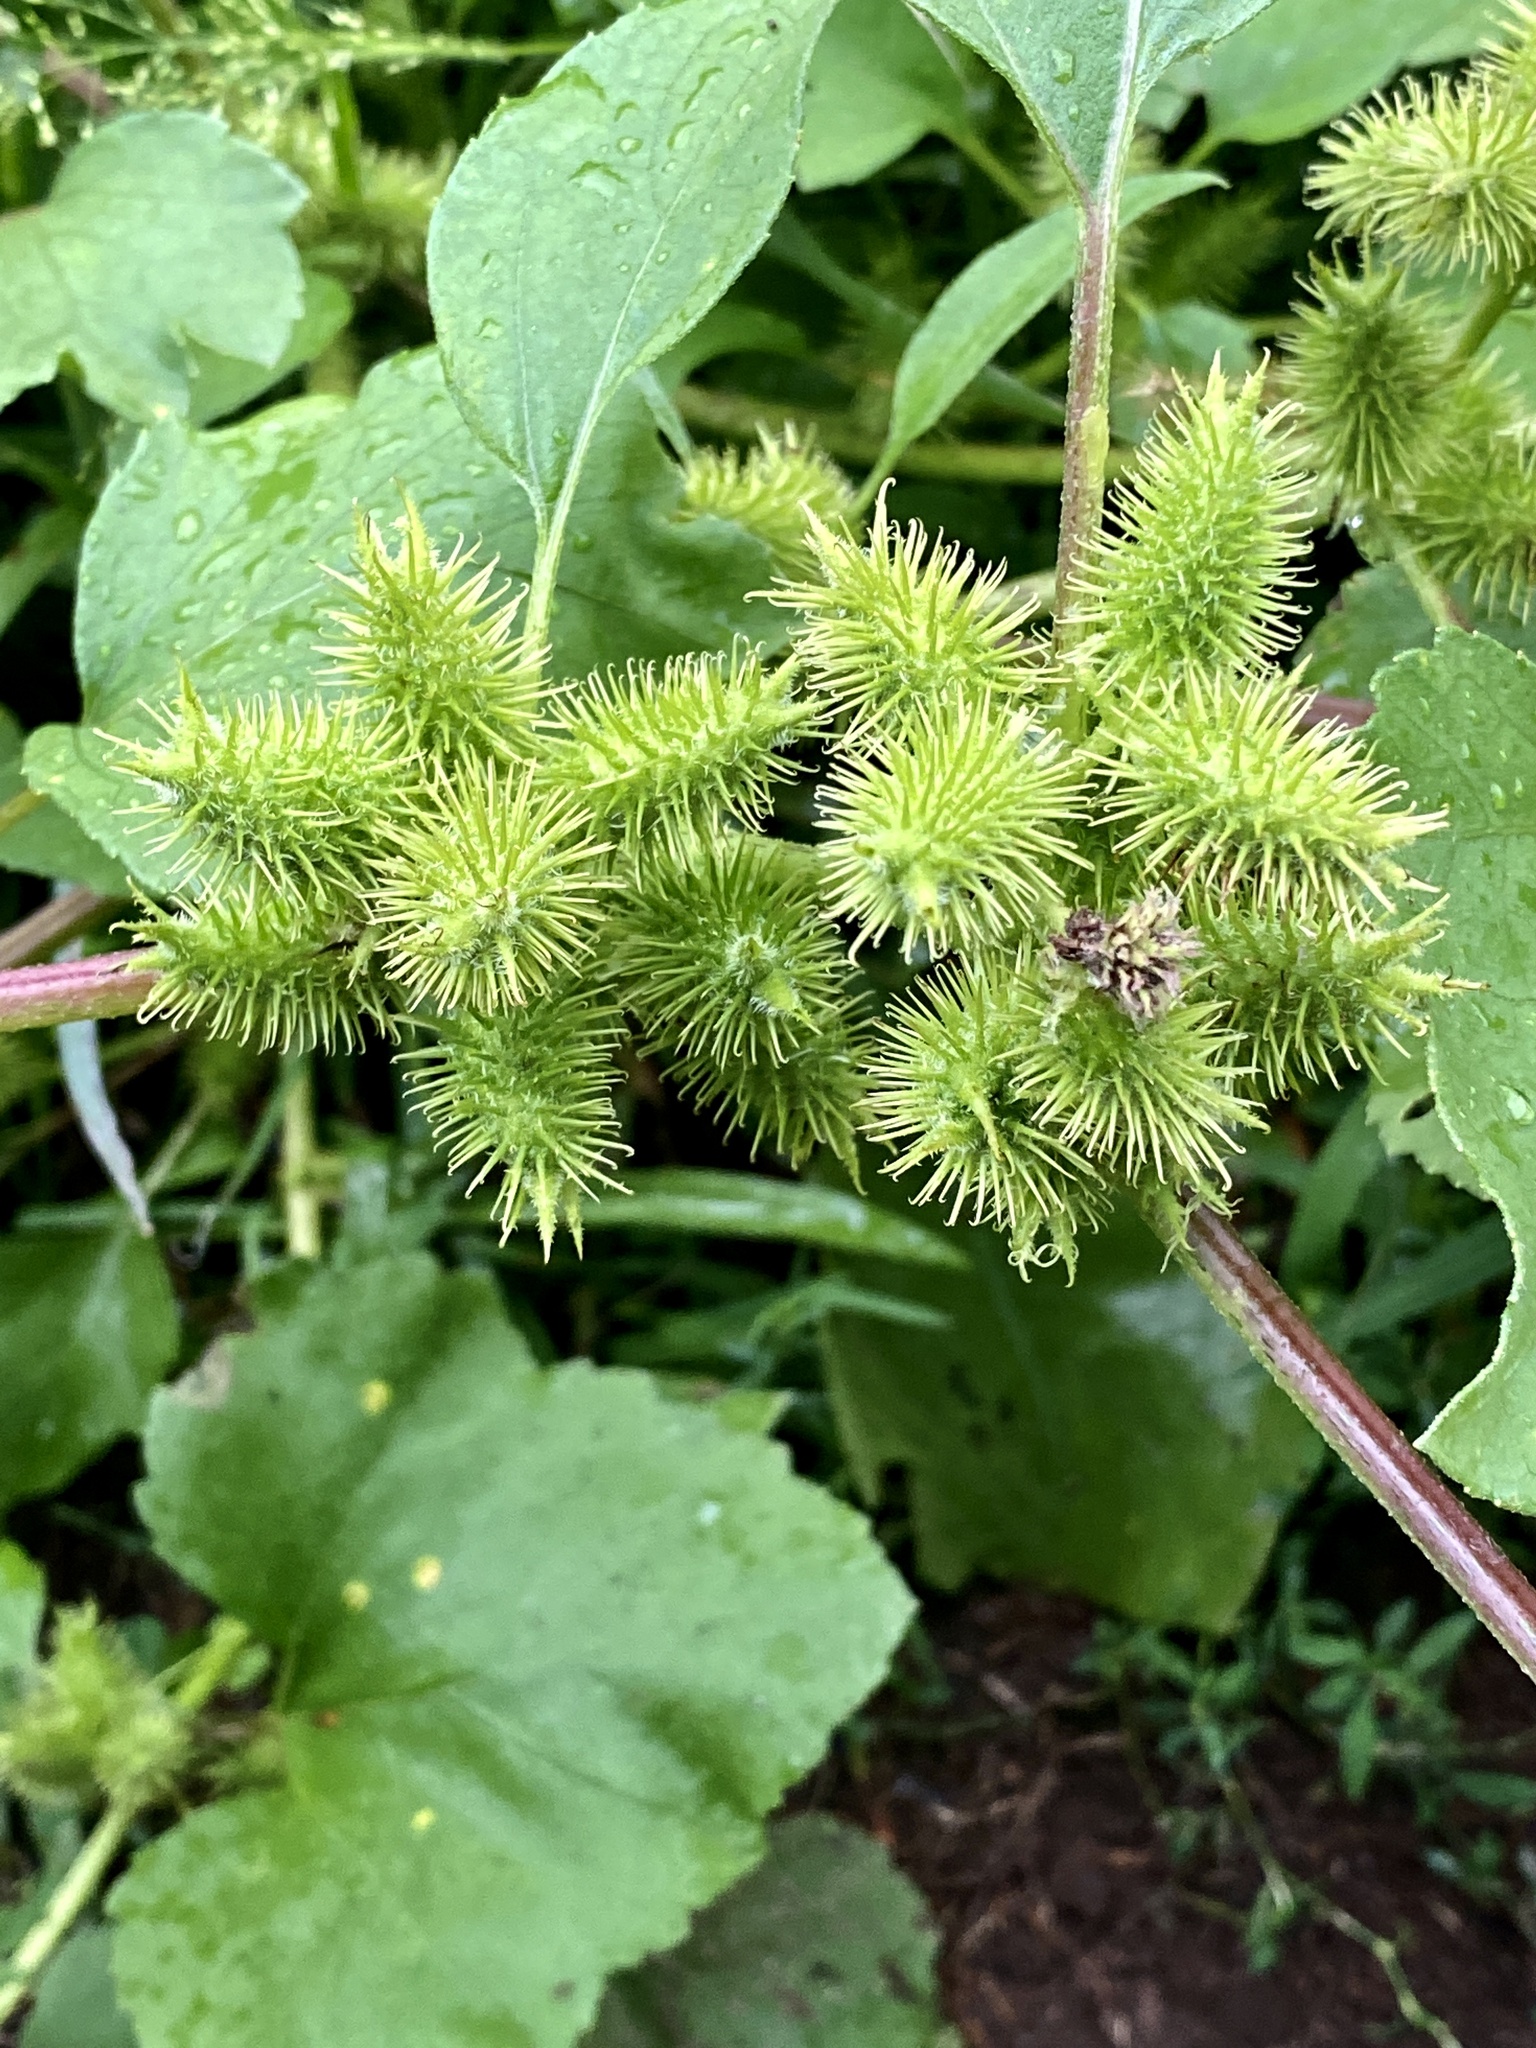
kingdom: Plantae
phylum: Tracheophyta
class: Magnoliopsida
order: Asterales
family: Asteraceae
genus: Xanthium
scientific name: Xanthium strumarium
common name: Rough cocklebur
